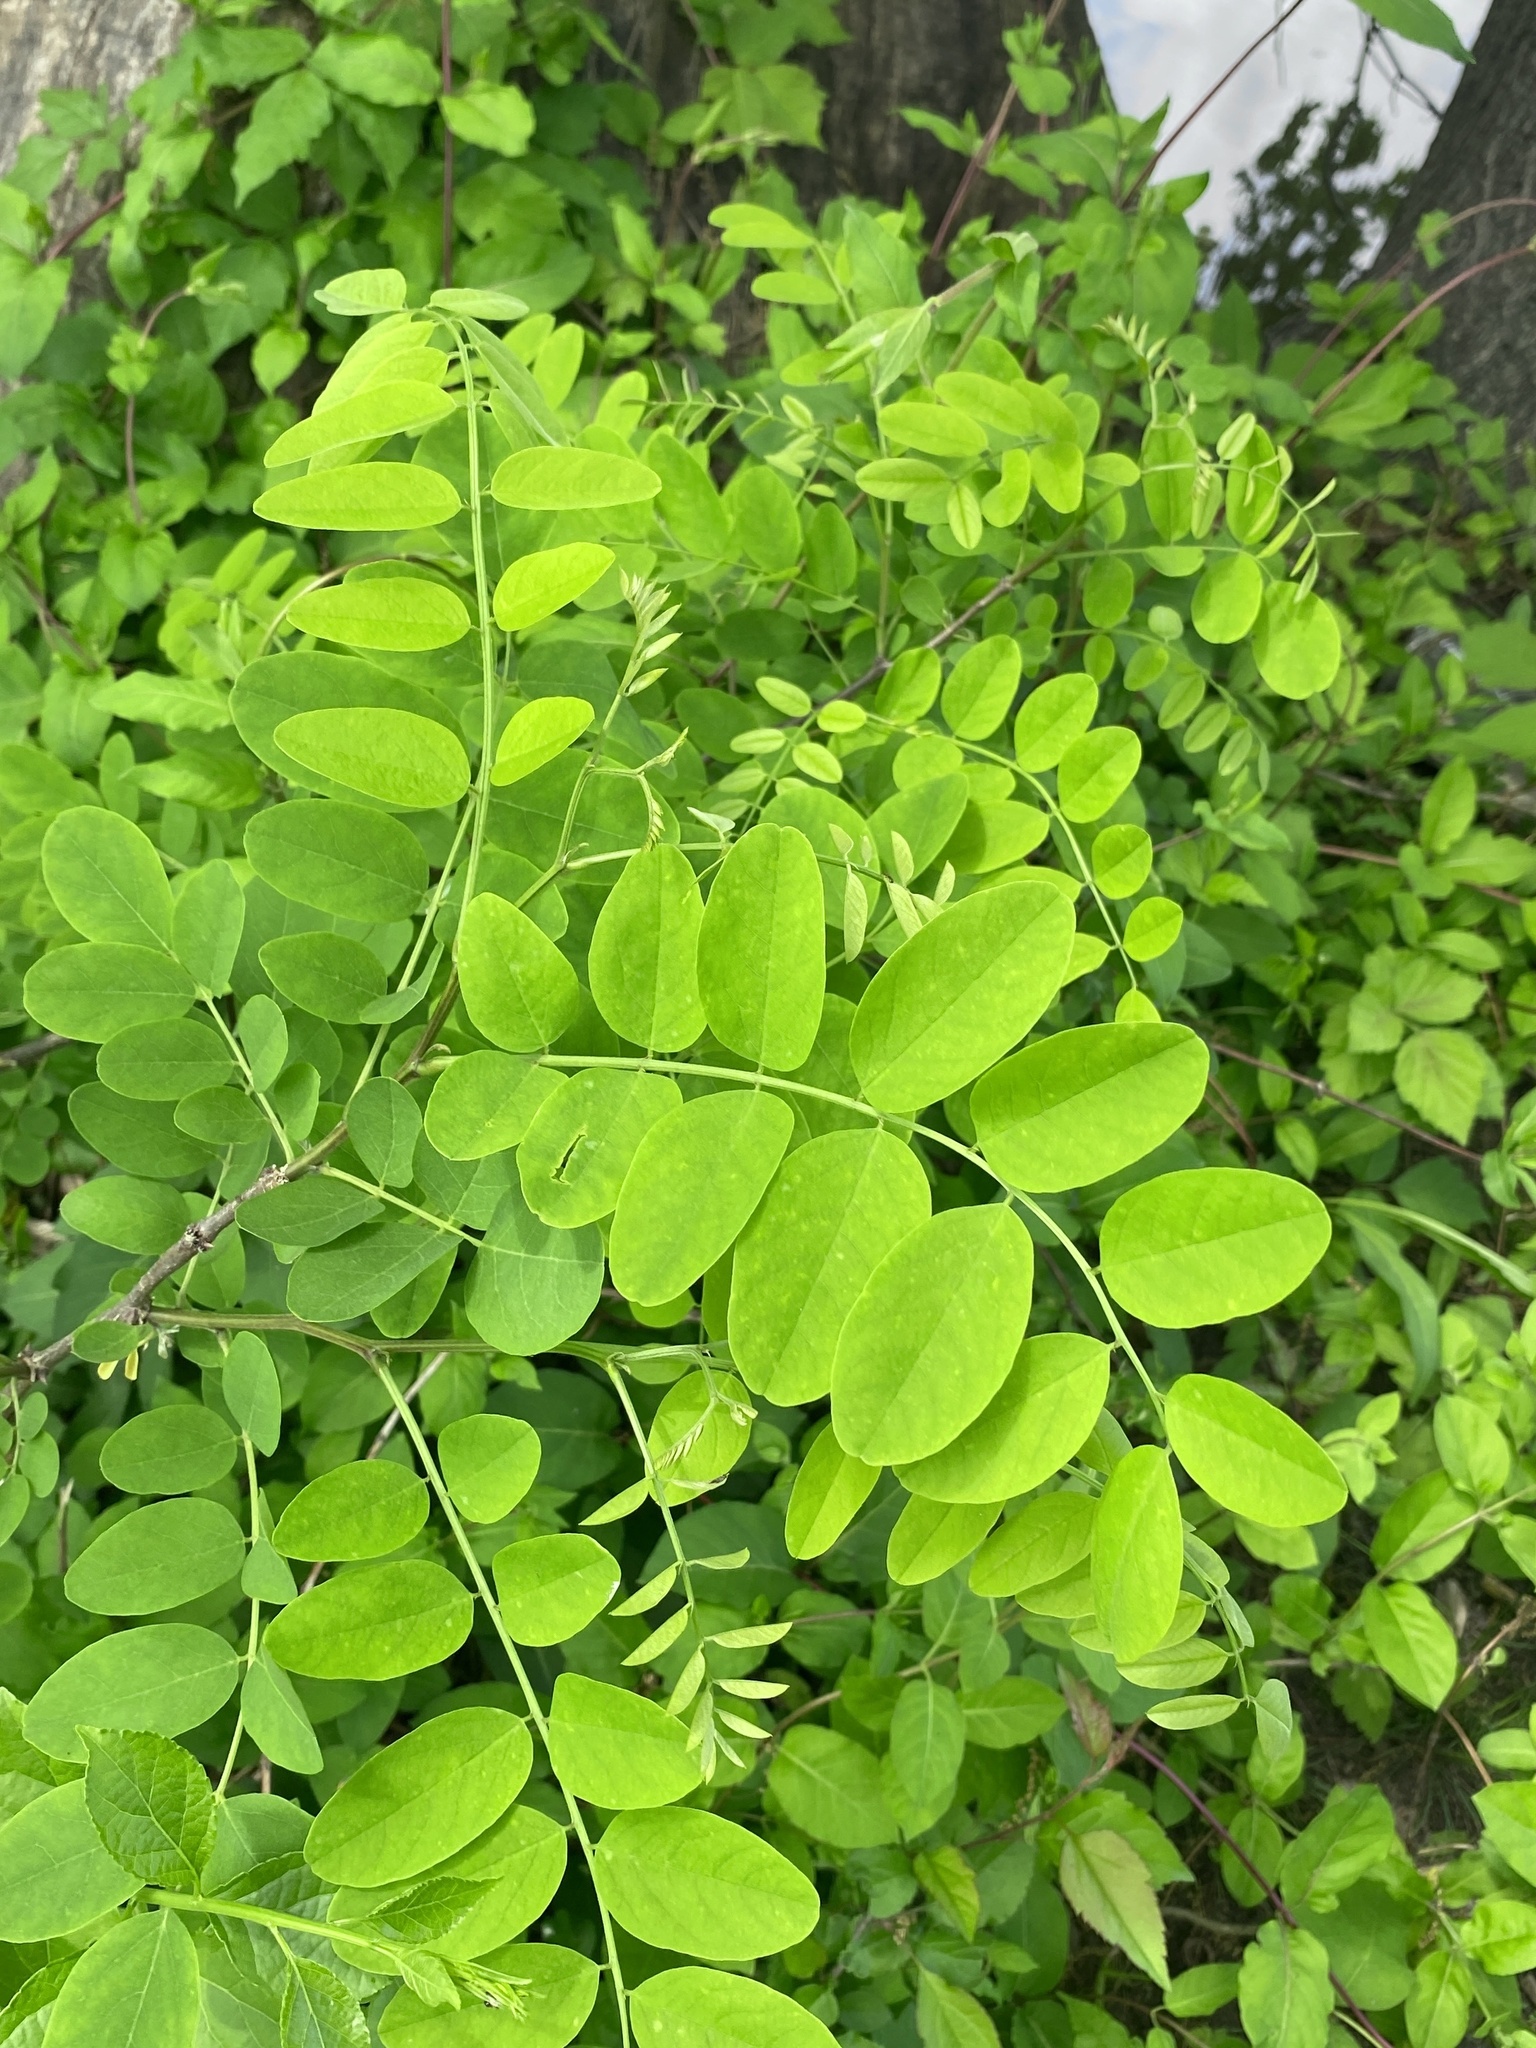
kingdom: Plantae
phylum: Tracheophyta
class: Magnoliopsida
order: Fabales
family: Fabaceae
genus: Robinia
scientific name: Robinia pseudoacacia
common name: Black locust
